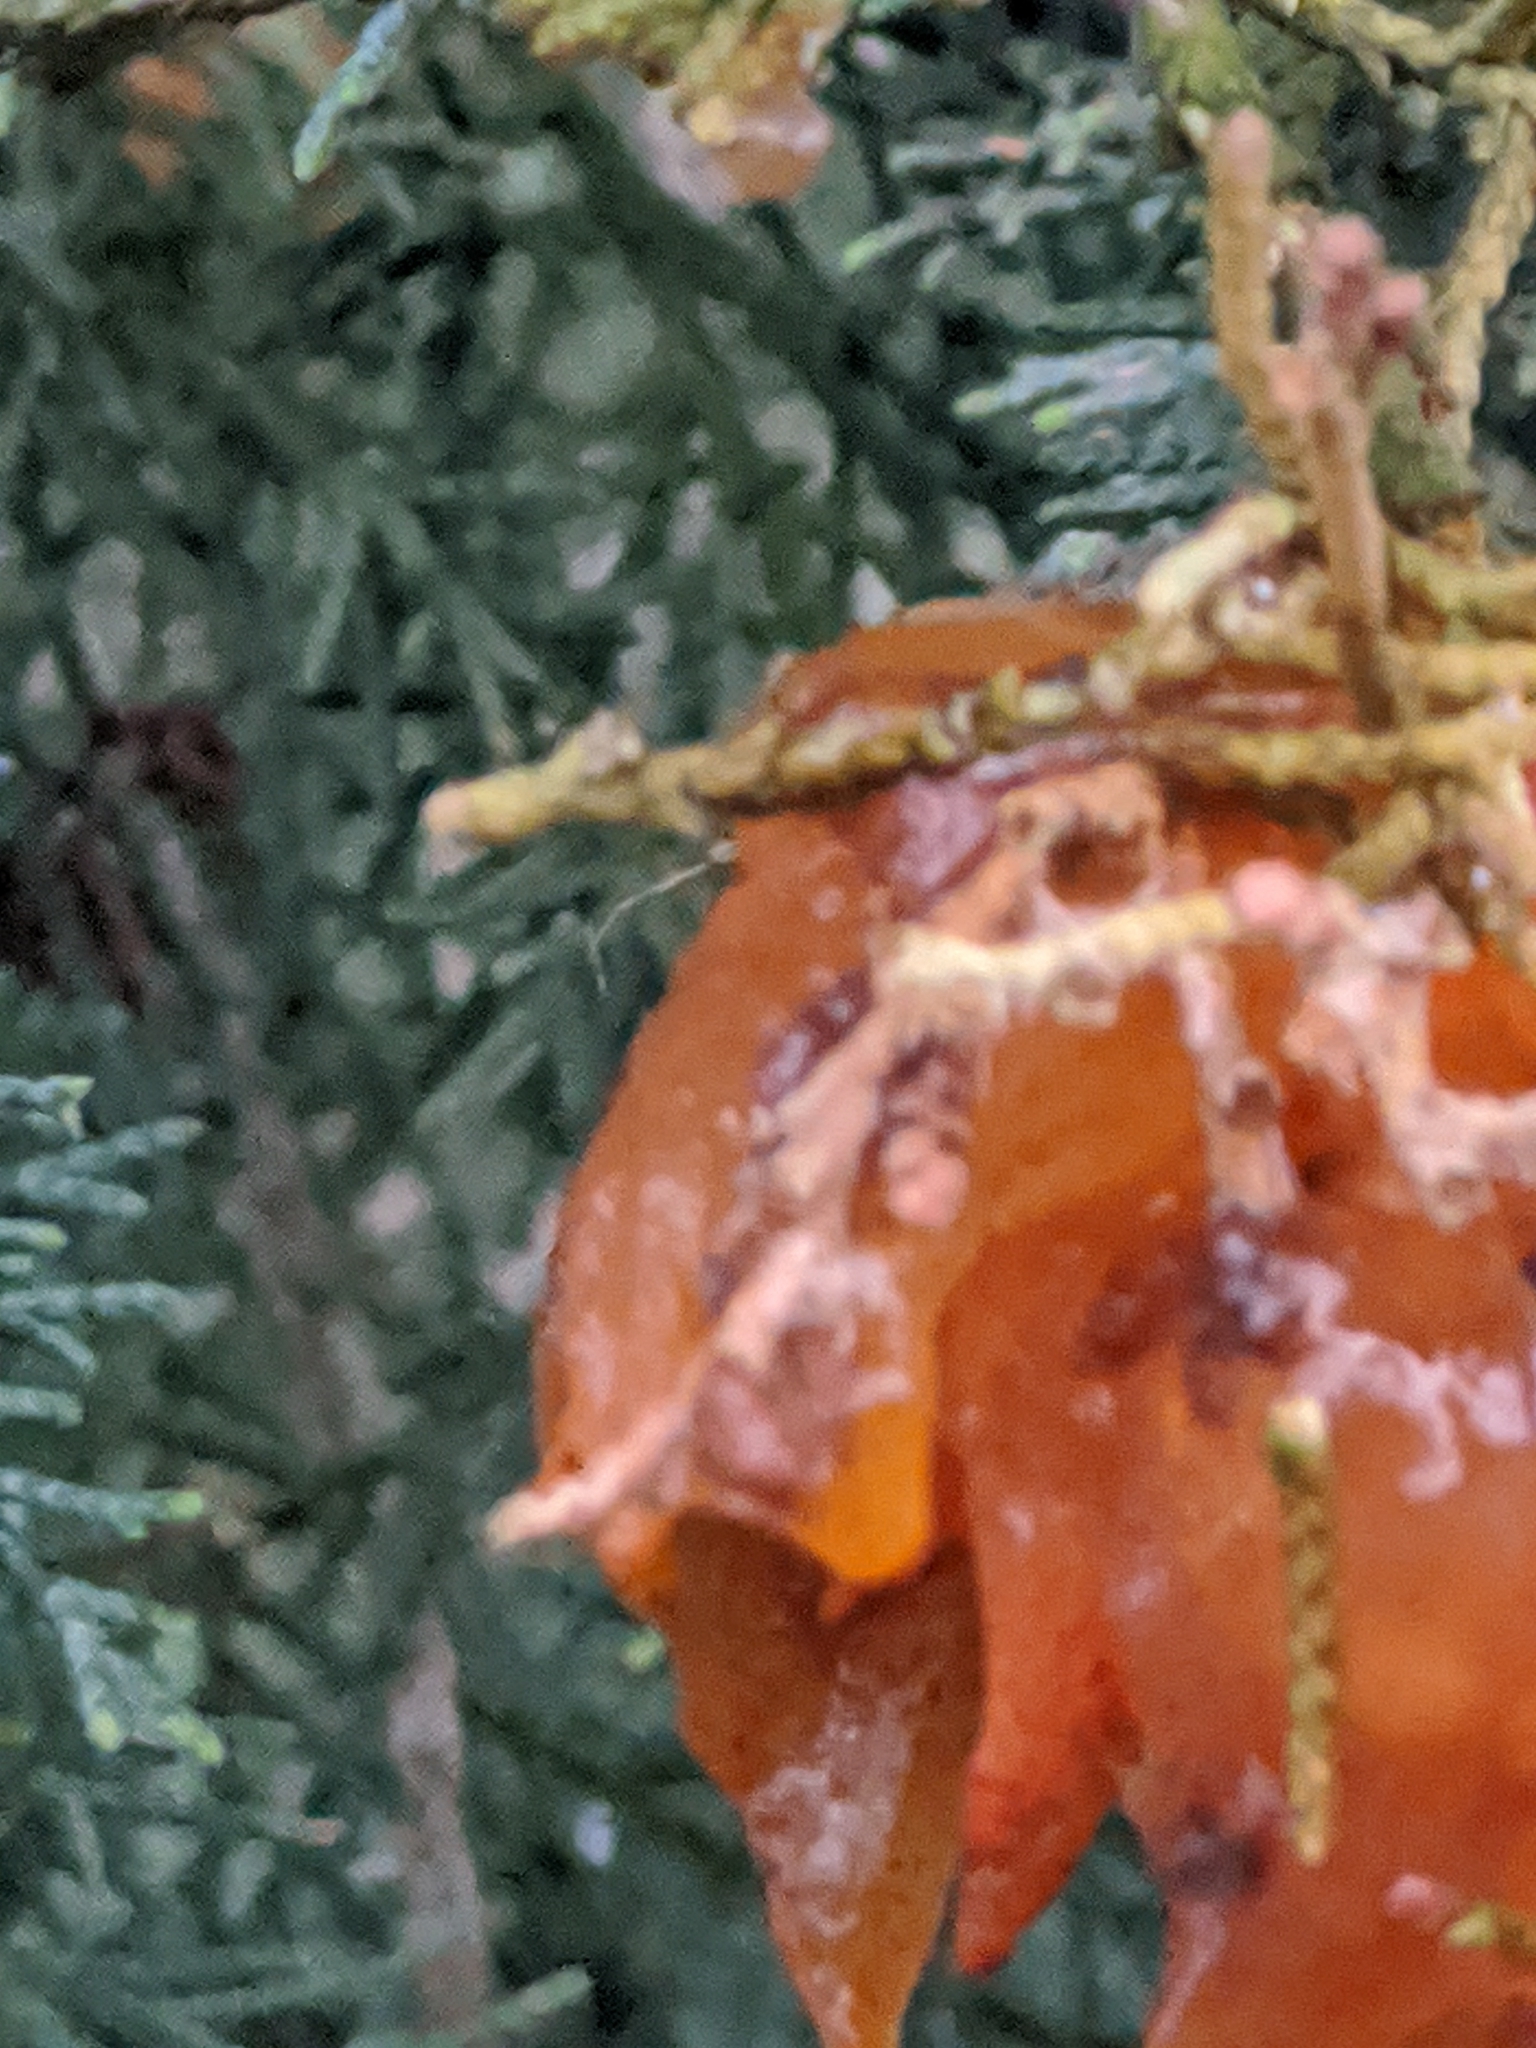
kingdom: Fungi
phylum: Basidiomycota
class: Pucciniomycetes
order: Pucciniales
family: Gymnosporangiaceae
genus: Gymnosporangium
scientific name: Gymnosporangium juniperi-virginianae
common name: Juniper-apple rust
